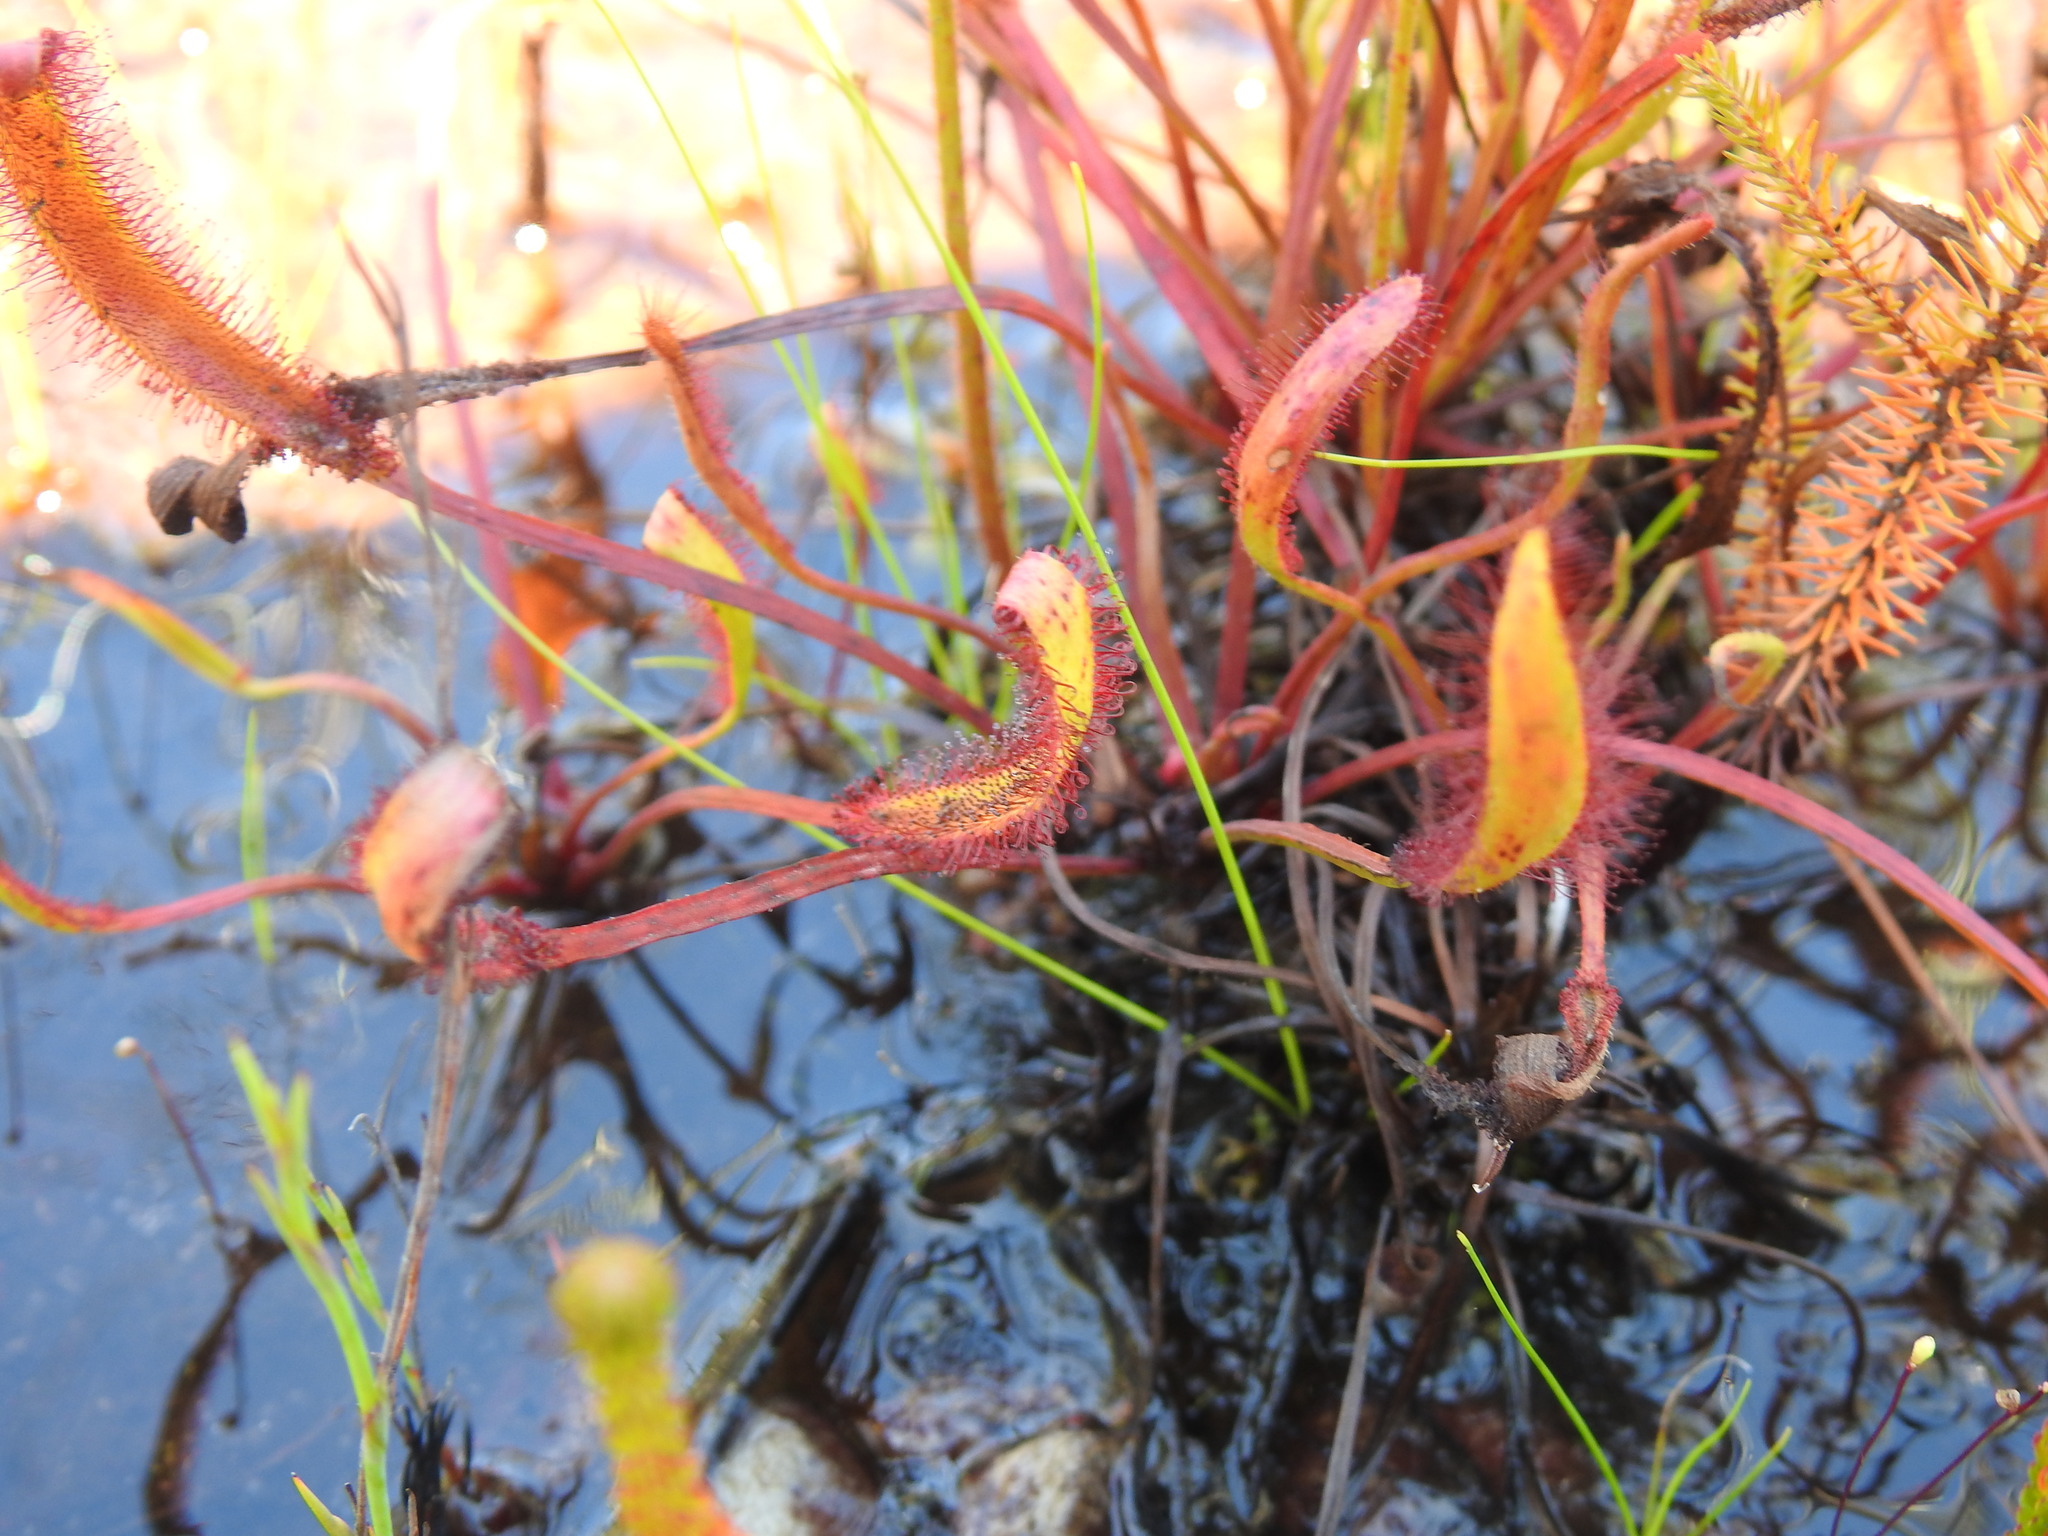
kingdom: Plantae
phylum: Tracheophyta
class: Magnoliopsida
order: Caryophyllales
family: Droseraceae
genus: Drosera
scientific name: Drosera capensis
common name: Cape sundew
